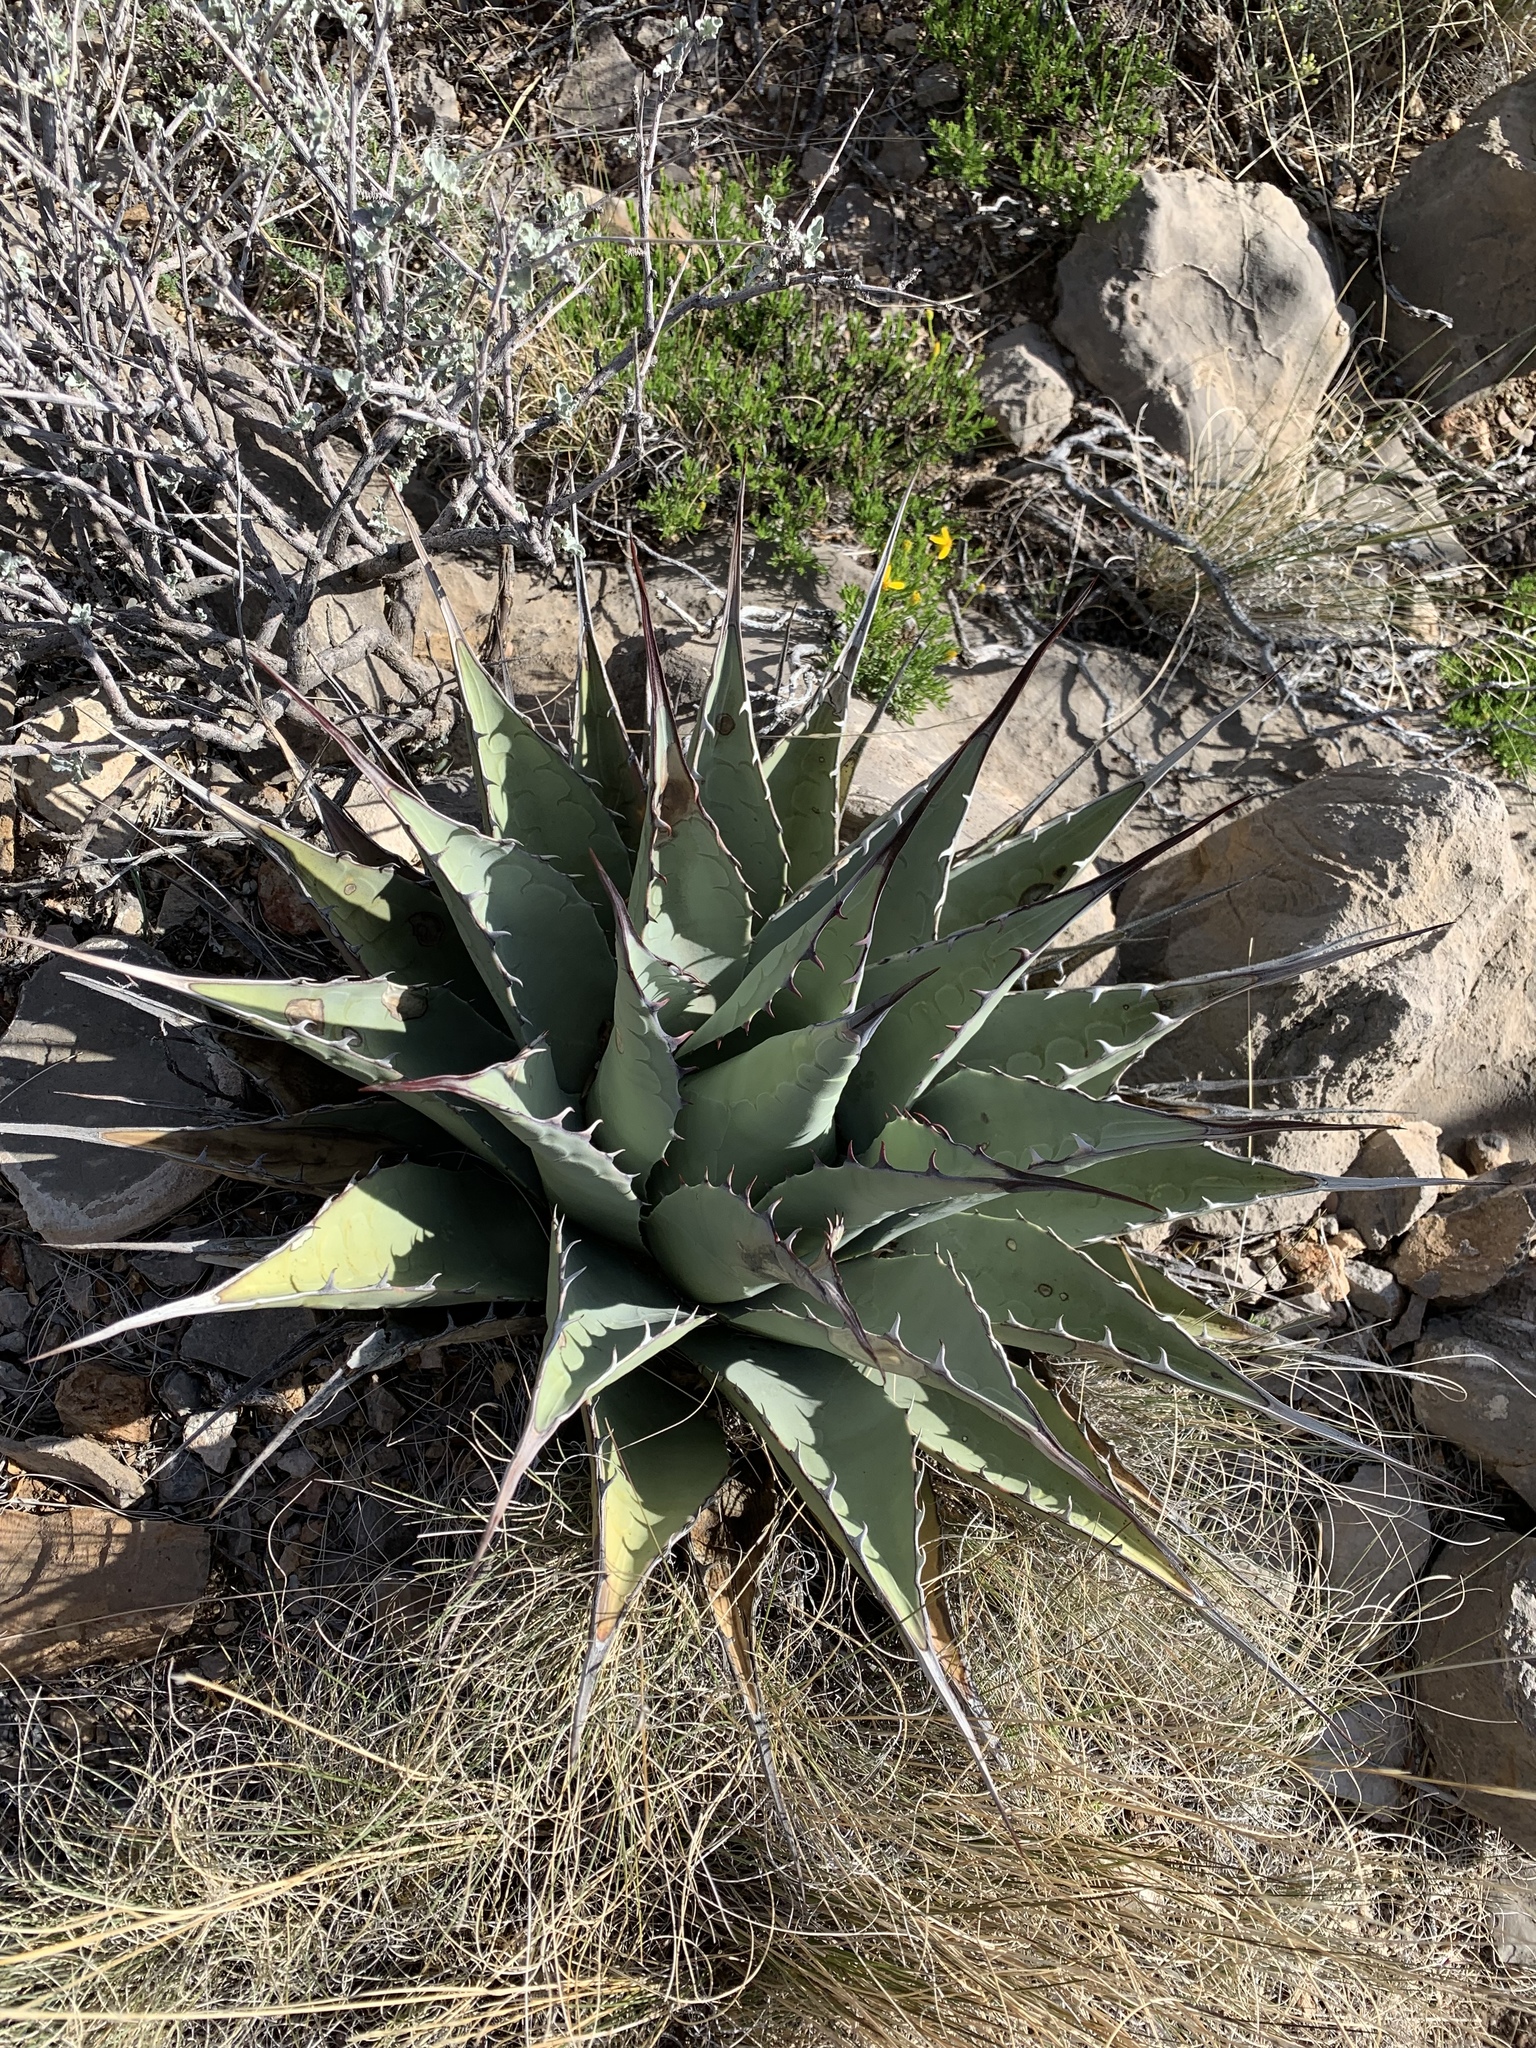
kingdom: Plantae
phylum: Tracheophyta
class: Liliopsida
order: Asparagales
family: Asparagaceae
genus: Agave
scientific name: Agave parryi
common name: Parry's agave
